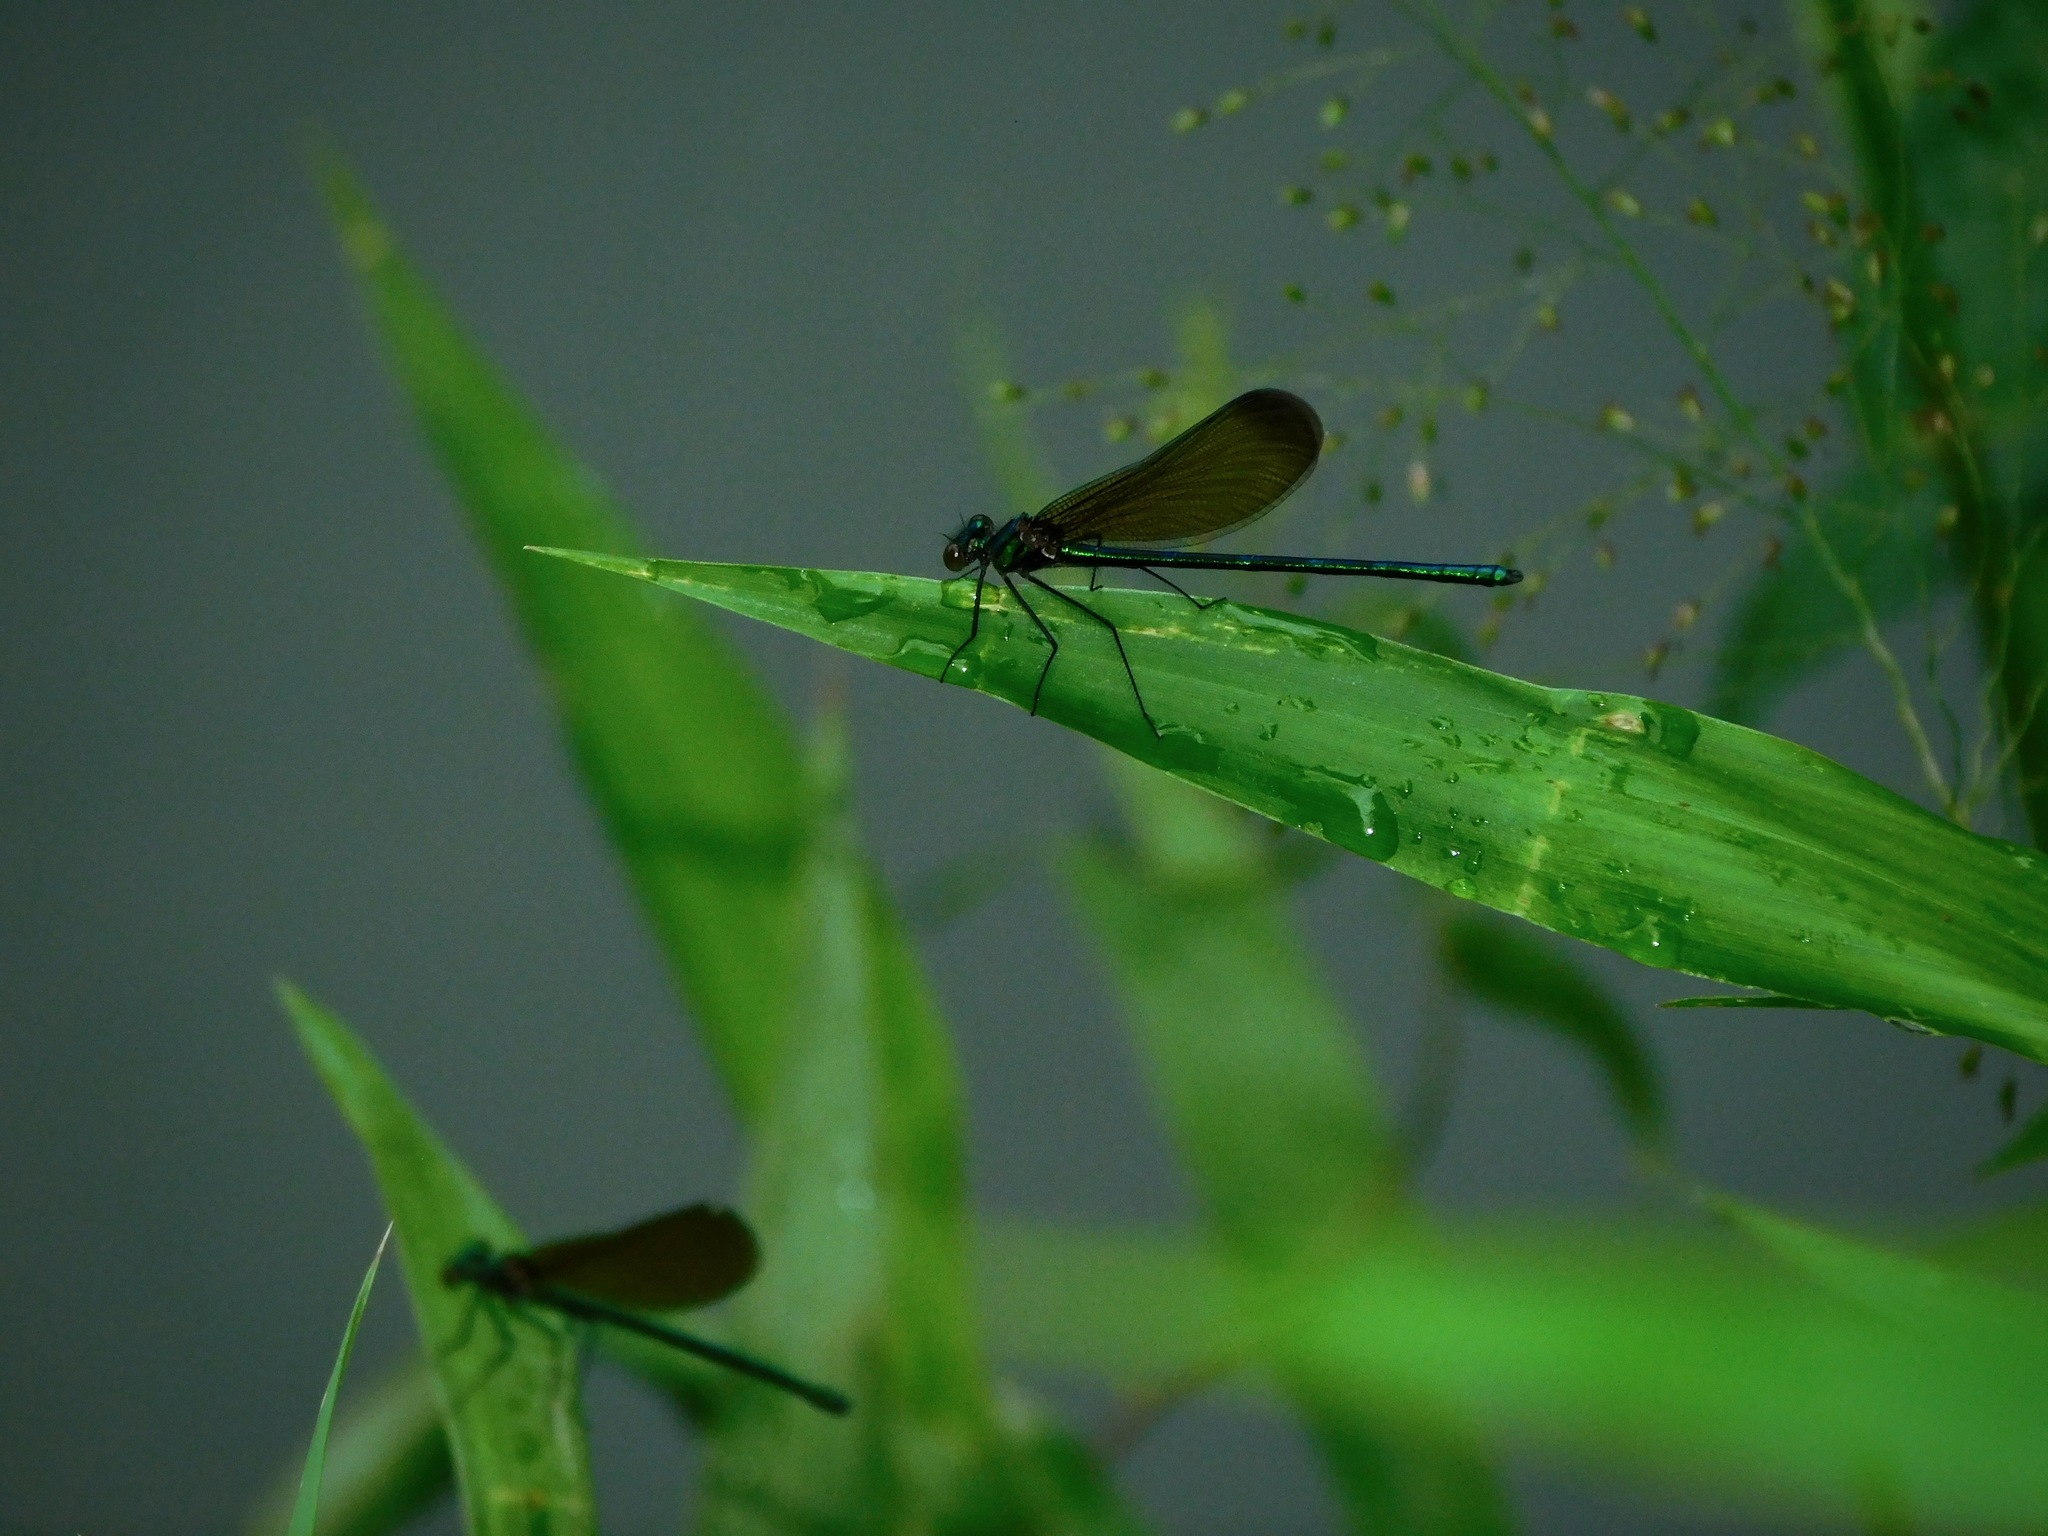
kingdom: Animalia
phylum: Arthropoda
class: Insecta
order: Odonata
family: Calopterygidae
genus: Calopteryx
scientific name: Calopteryx maculata
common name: Ebony jewelwing
